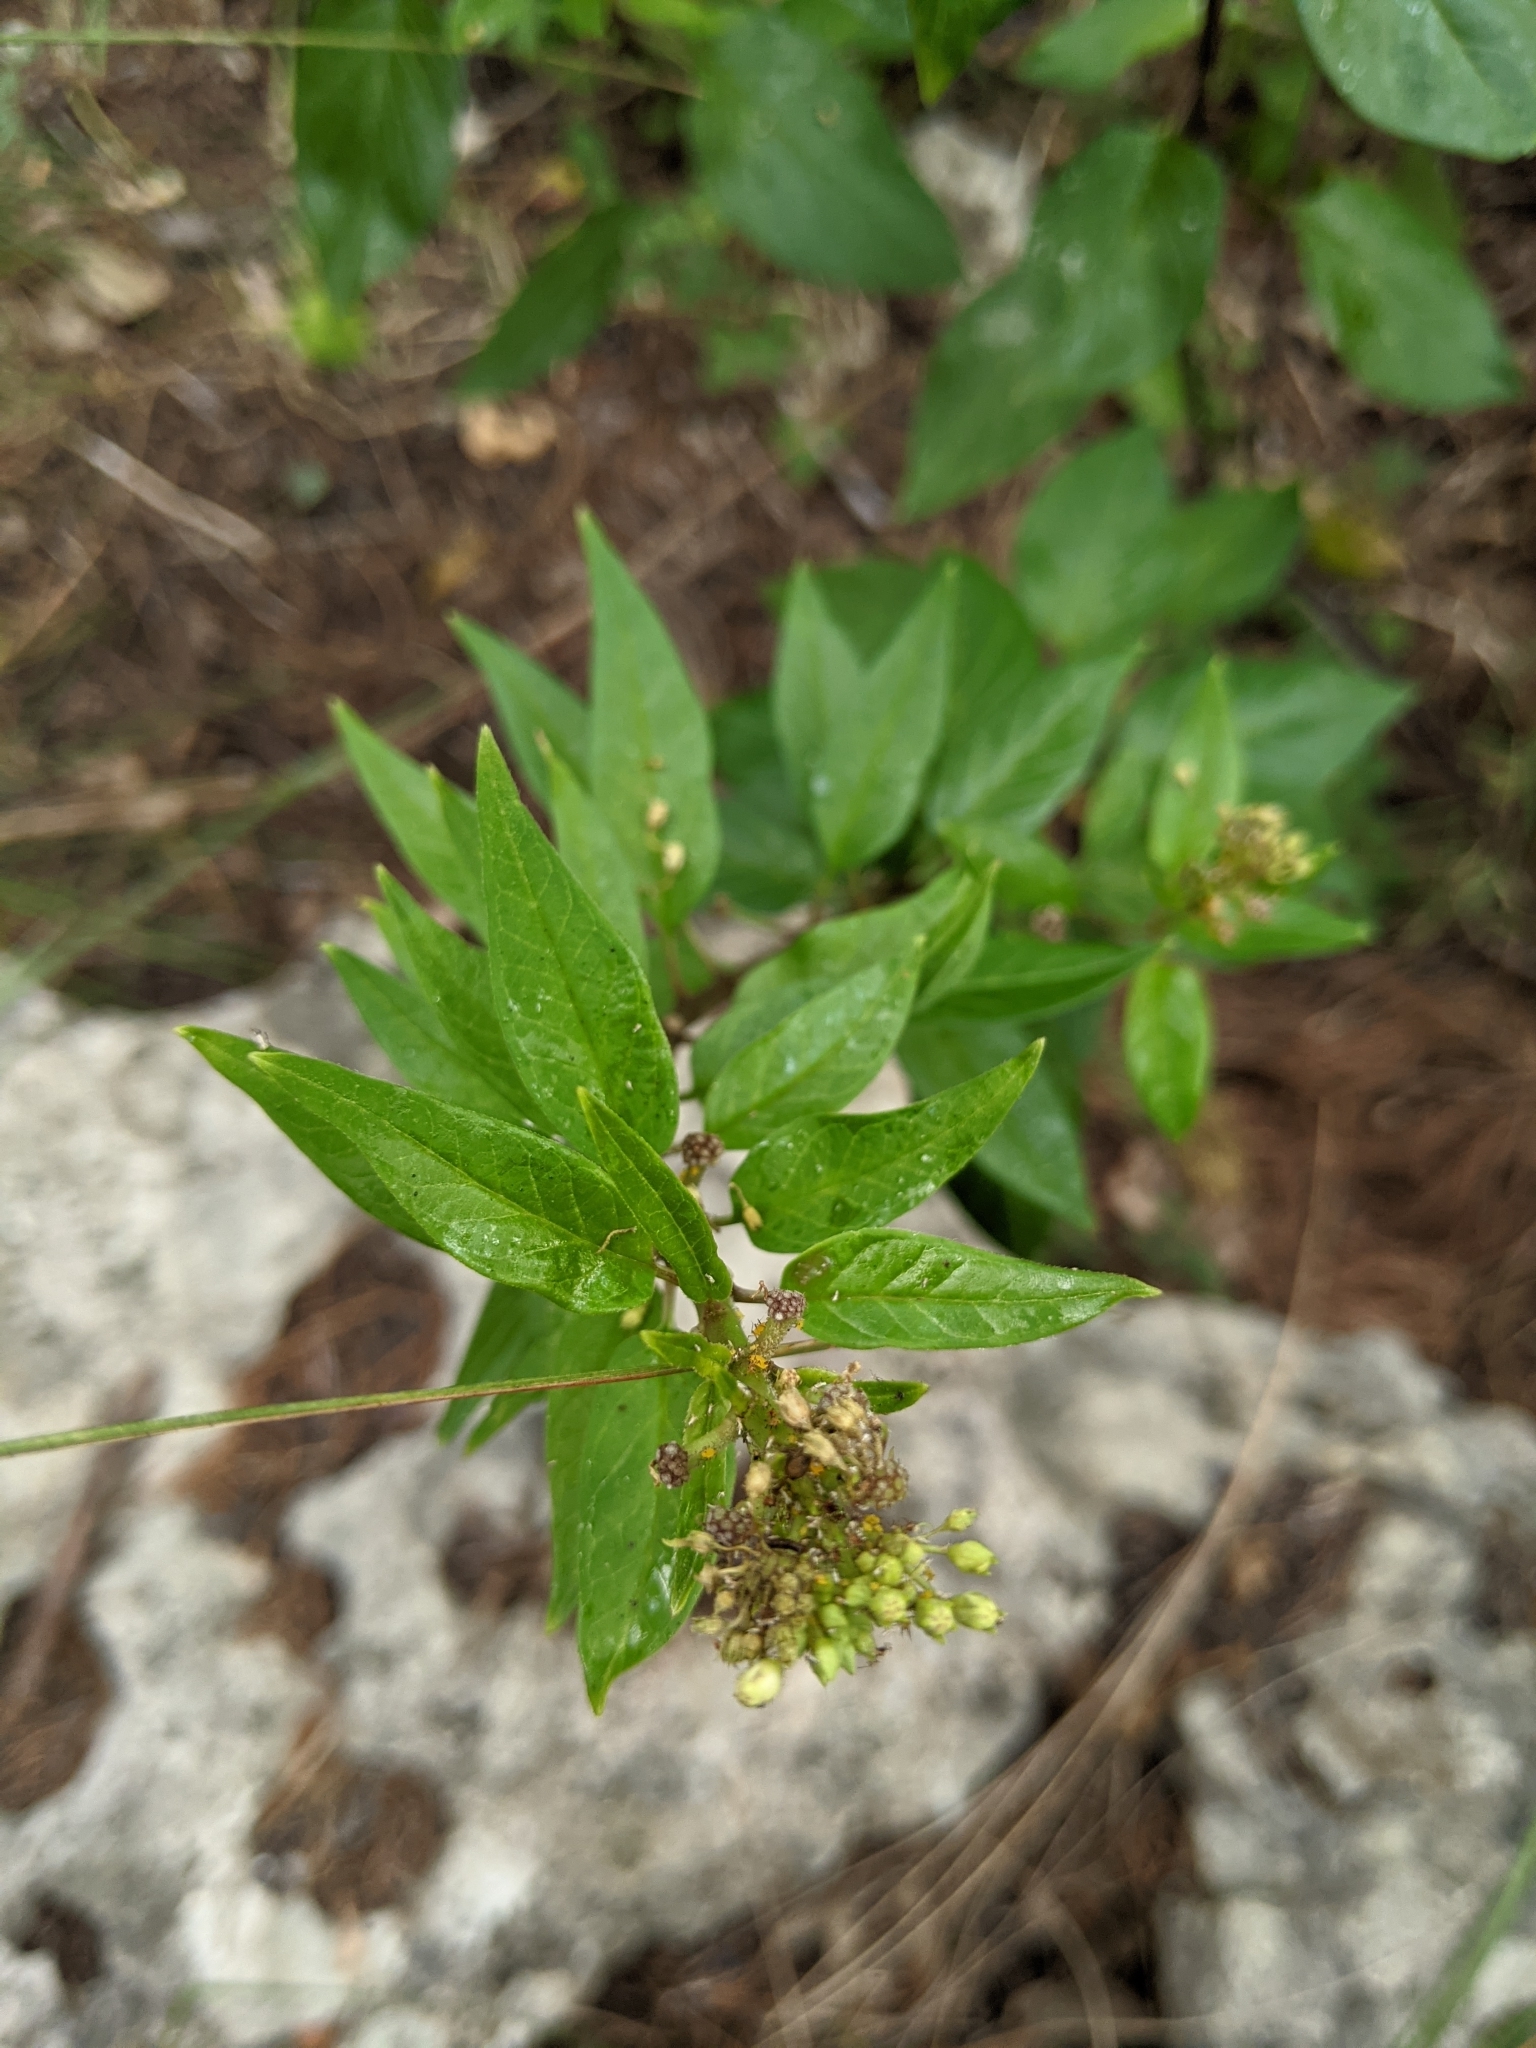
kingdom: Plantae
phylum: Tracheophyta
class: Magnoliopsida
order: Gentianales
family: Apocynaceae
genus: Asclepias
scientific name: Asclepias texana
